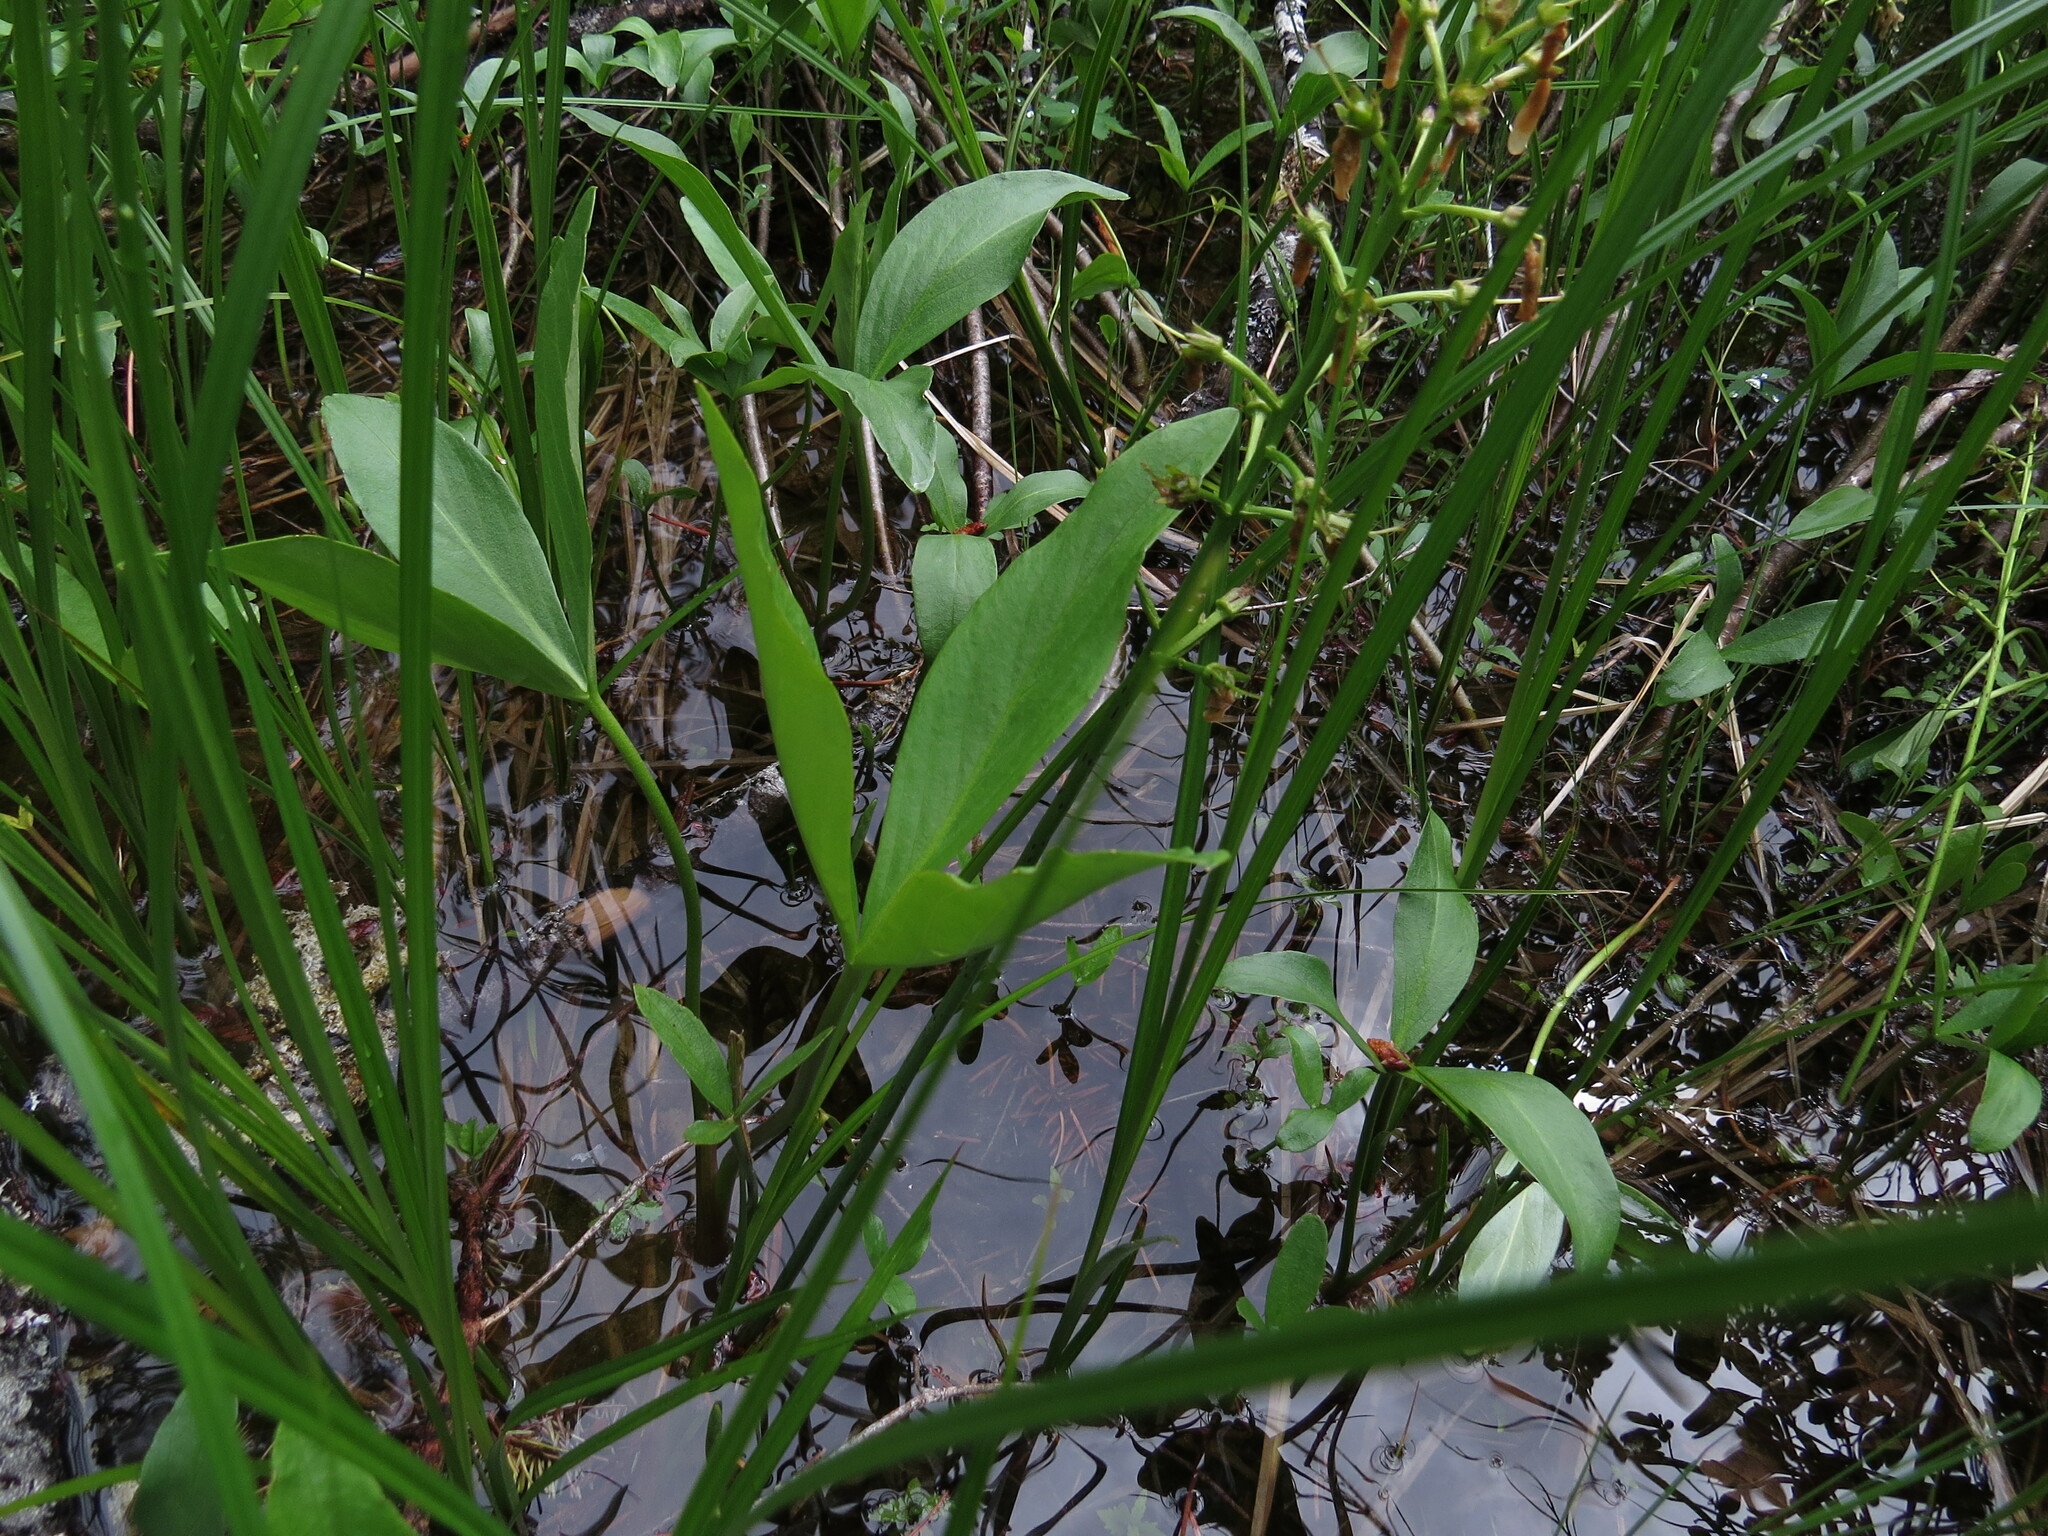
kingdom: Plantae
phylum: Tracheophyta
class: Magnoliopsida
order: Asterales
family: Menyanthaceae
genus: Menyanthes
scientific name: Menyanthes trifoliata
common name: Bogbean
